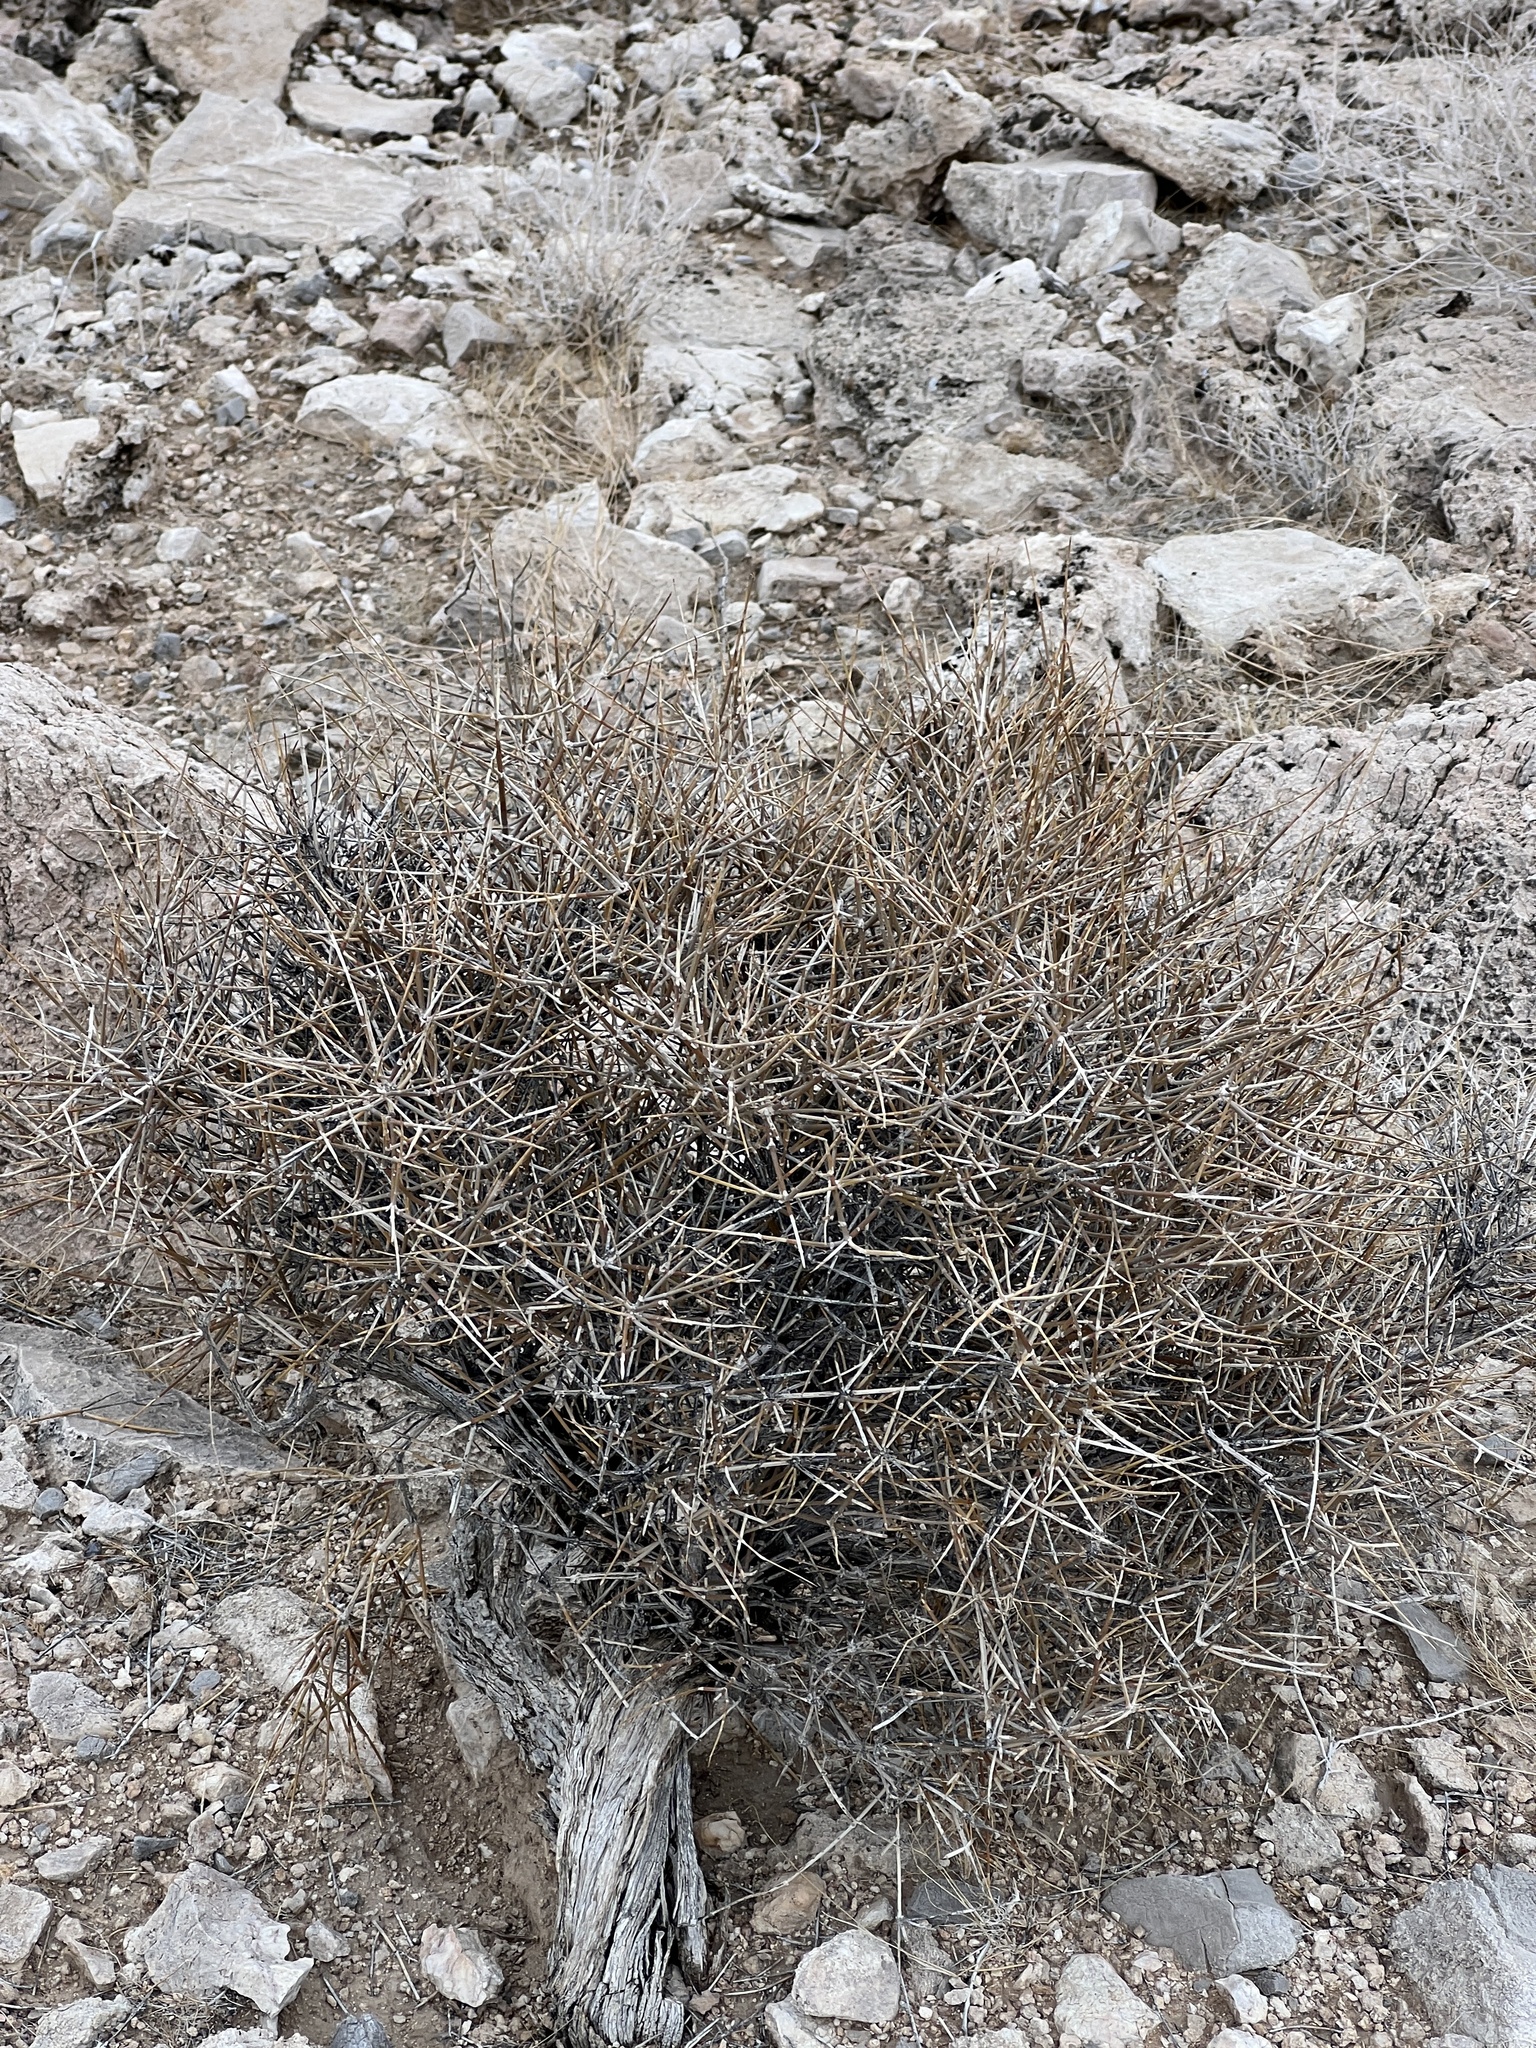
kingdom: Plantae
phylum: Tracheophyta
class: Gnetopsida
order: Ephedrales
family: Ephedraceae
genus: Ephedra
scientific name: Ephedra nevadensis
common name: Gray ephedra
